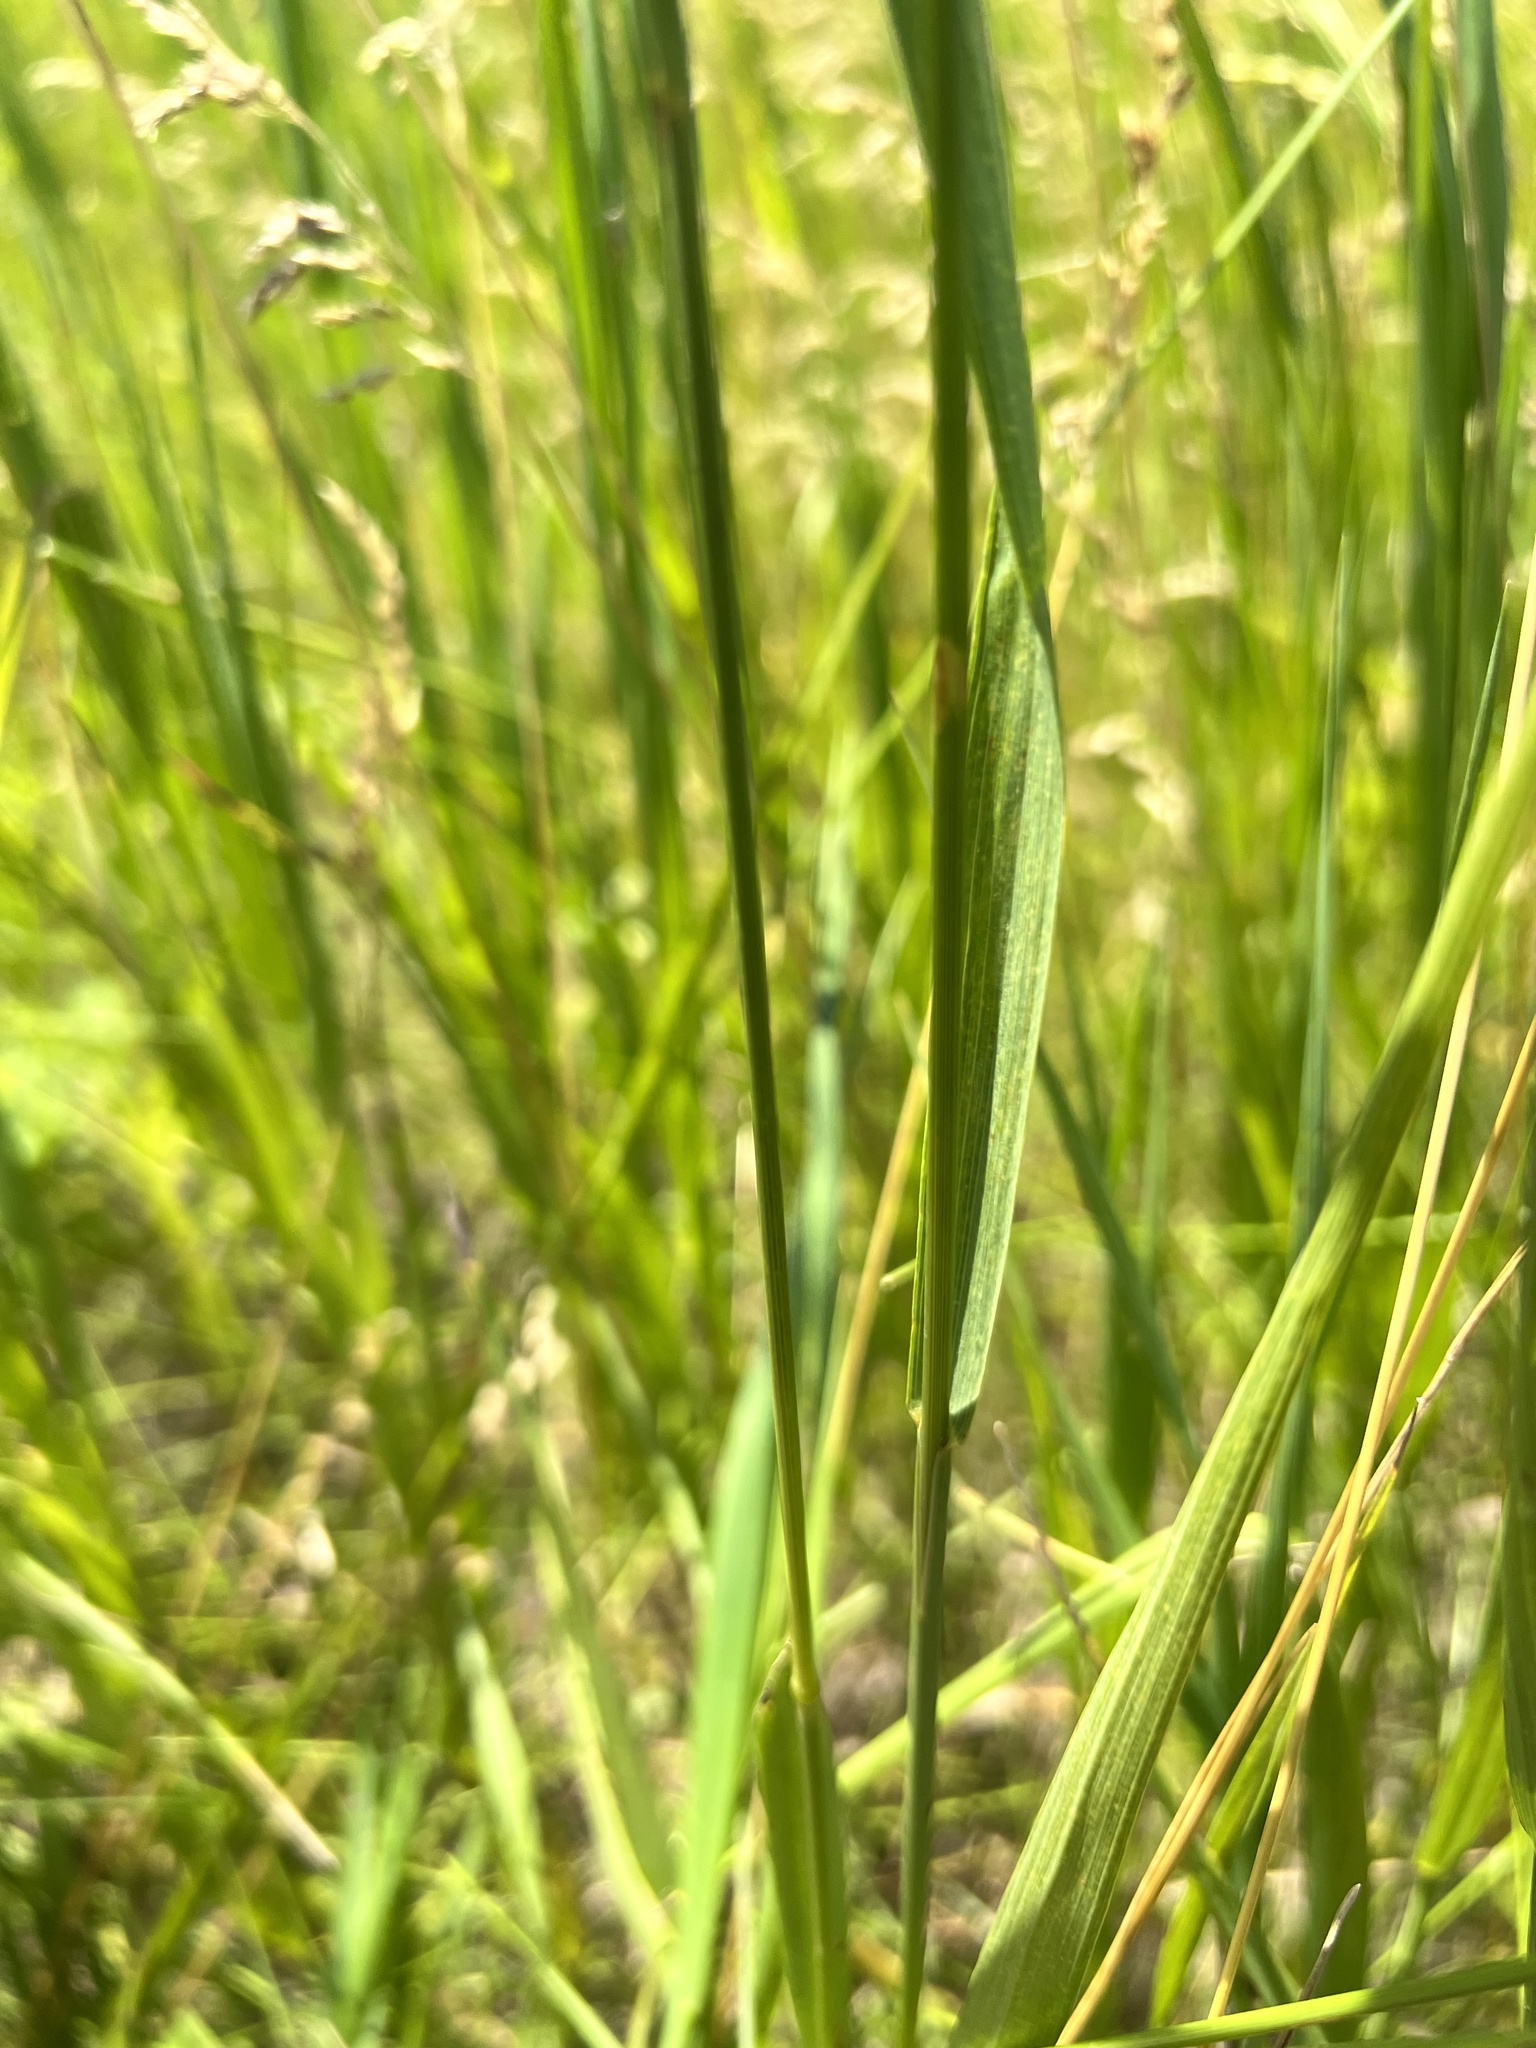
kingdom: Plantae
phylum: Tracheophyta
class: Liliopsida
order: Poales
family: Poaceae
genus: Bromus
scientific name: Bromus inermis
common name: Smooth brome
